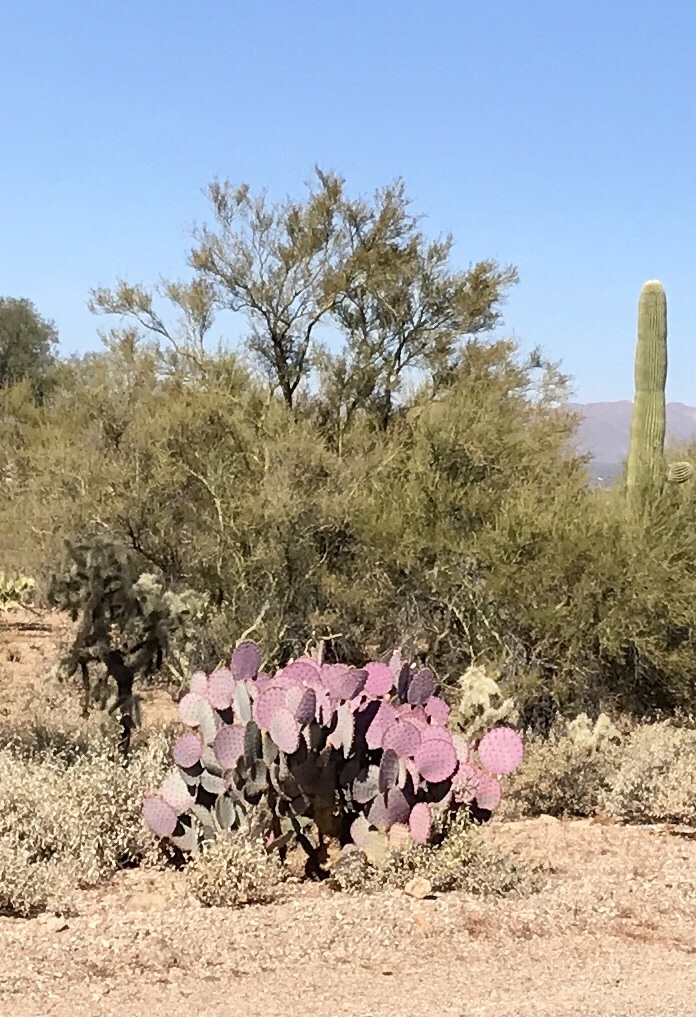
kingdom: Plantae
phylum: Tracheophyta
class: Magnoliopsida
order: Caryophyllales
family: Cactaceae
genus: Opuntia
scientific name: Opuntia gosseliniana
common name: Violet prickly-pear
